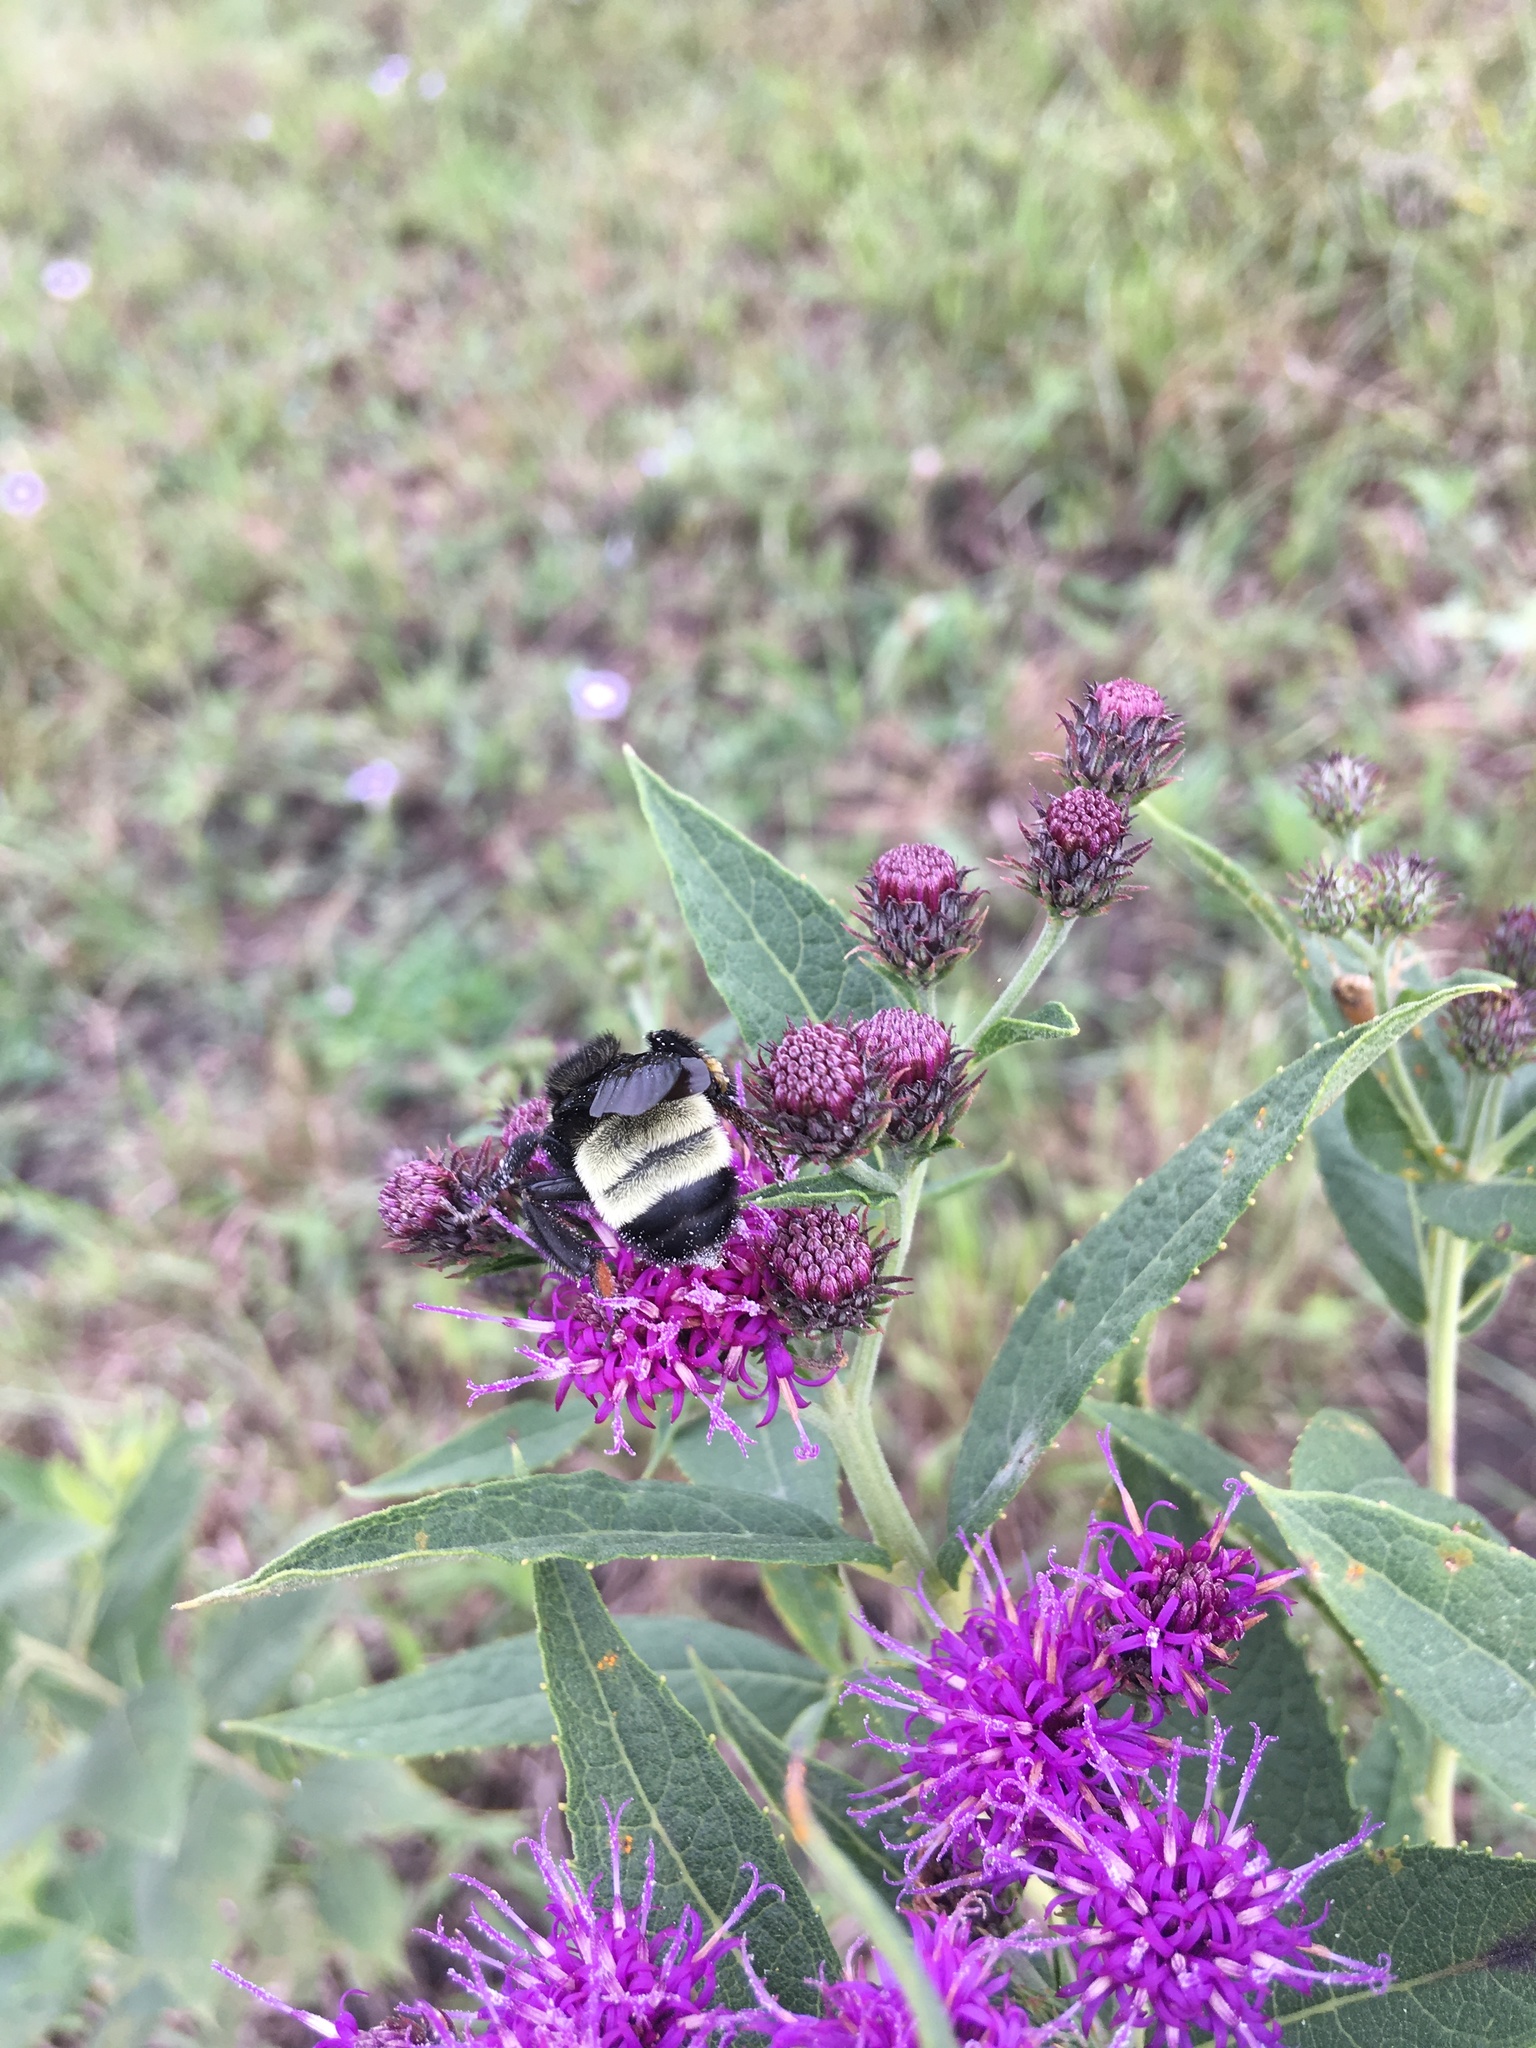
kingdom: Animalia
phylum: Arthropoda
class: Insecta
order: Hymenoptera
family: Apidae
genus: Bombus
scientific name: Bombus pensylvanicus
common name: Bumble bee
